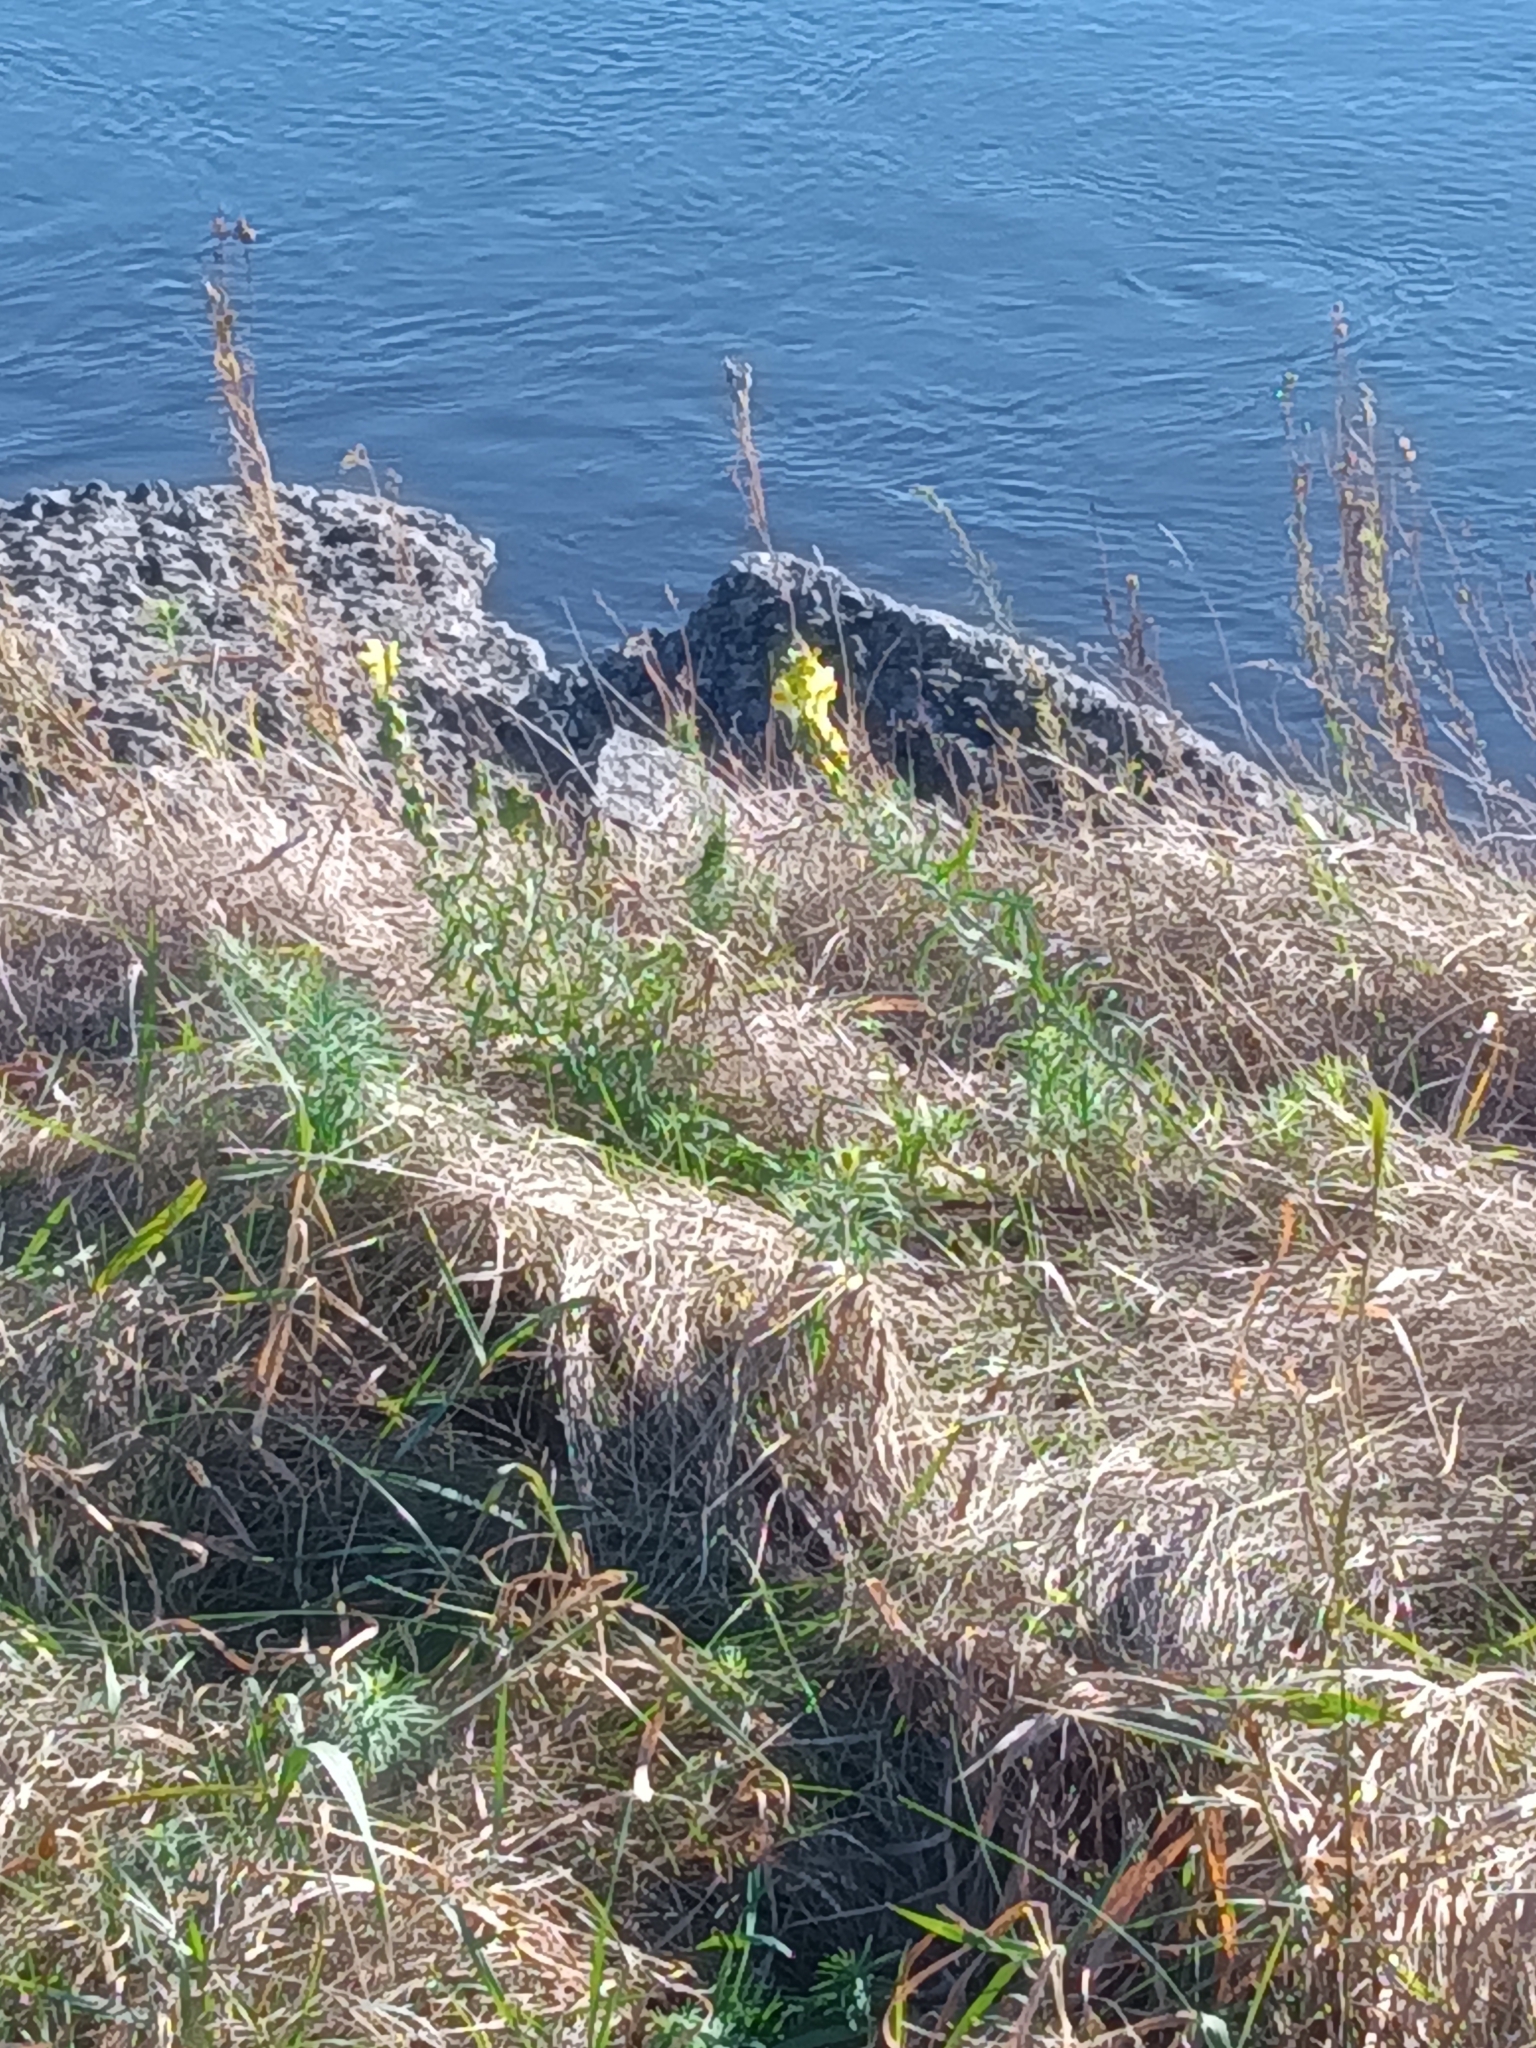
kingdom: Plantae
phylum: Tracheophyta
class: Magnoliopsida
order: Lamiales
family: Plantaginaceae
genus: Linaria
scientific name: Linaria vulgaris
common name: Butter and eggs
